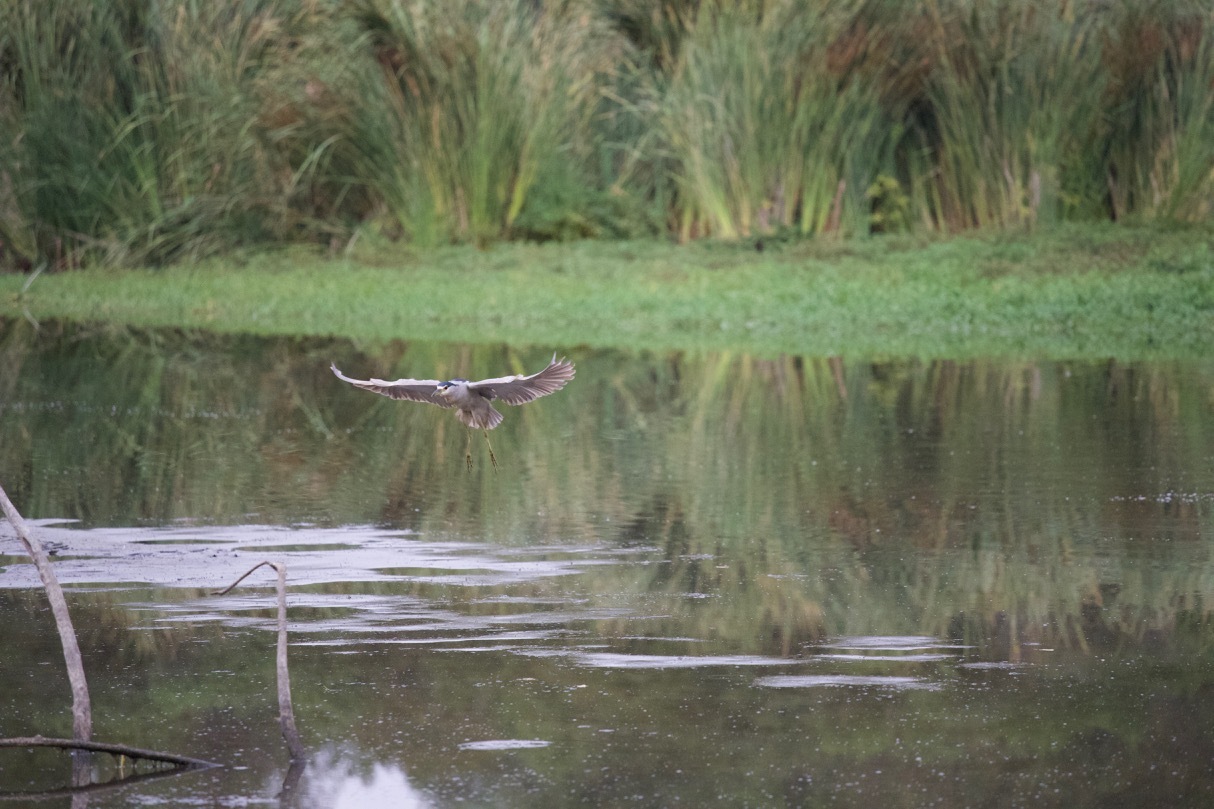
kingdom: Animalia
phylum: Chordata
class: Aves
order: Pelecaniformes
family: Ardeidae
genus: Nycticorax
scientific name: Nycticorax nycticorax
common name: Black-crowned night heron
